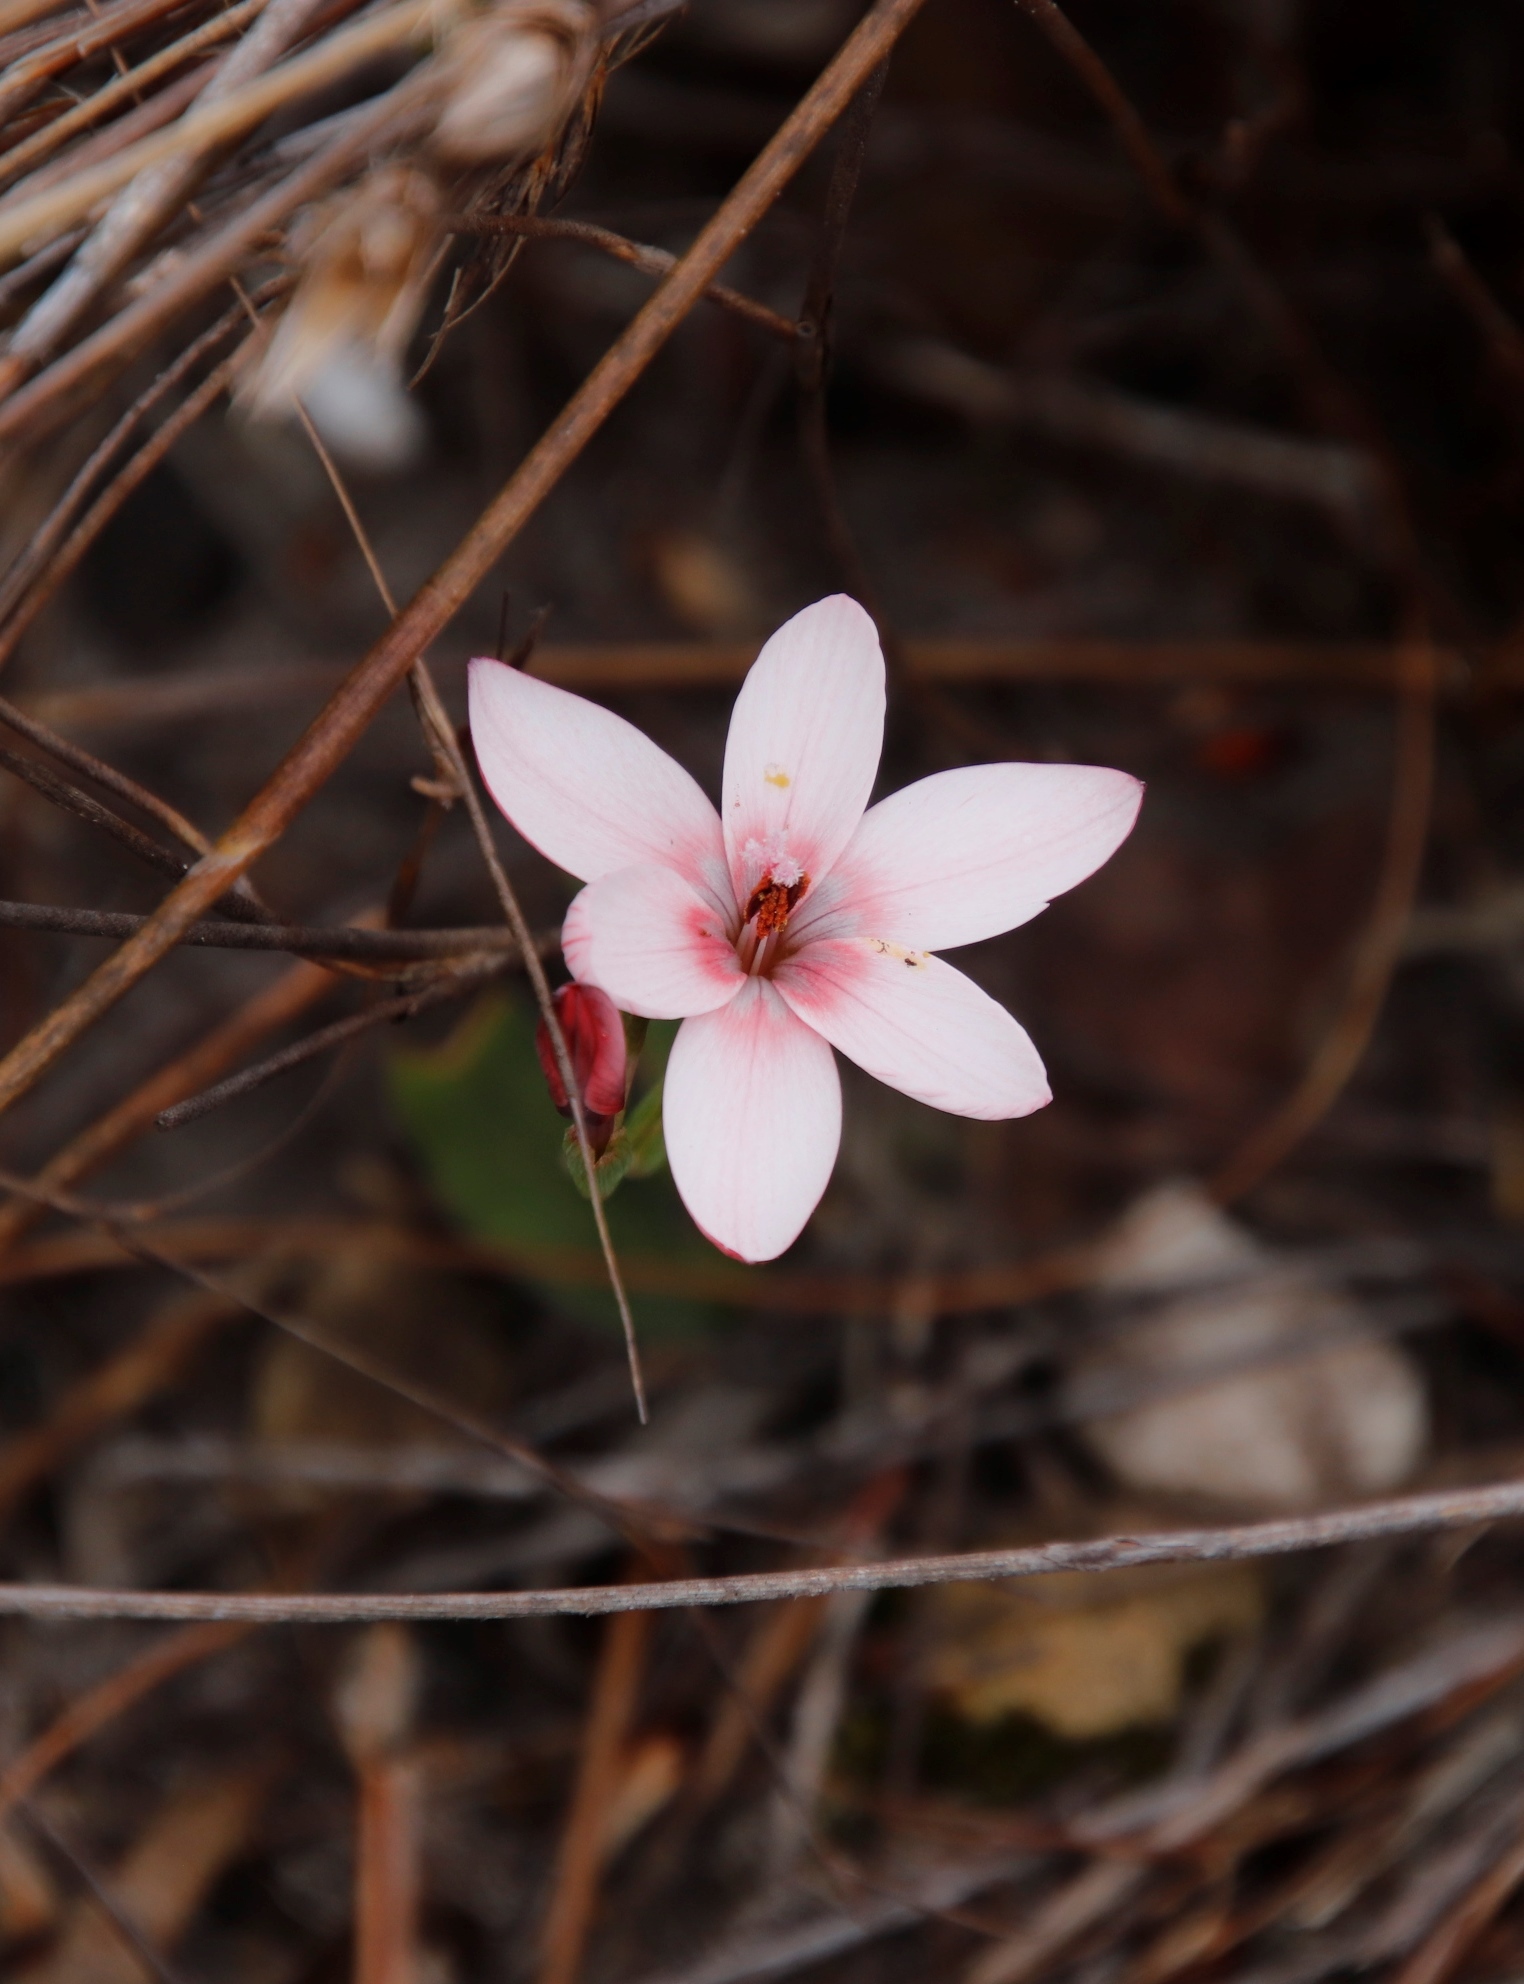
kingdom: Plantae
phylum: Tracheophyta
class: Liliopsida
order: Asparagales
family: Iridaceae
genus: Geissorhiza
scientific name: Geissorhiza ovata
